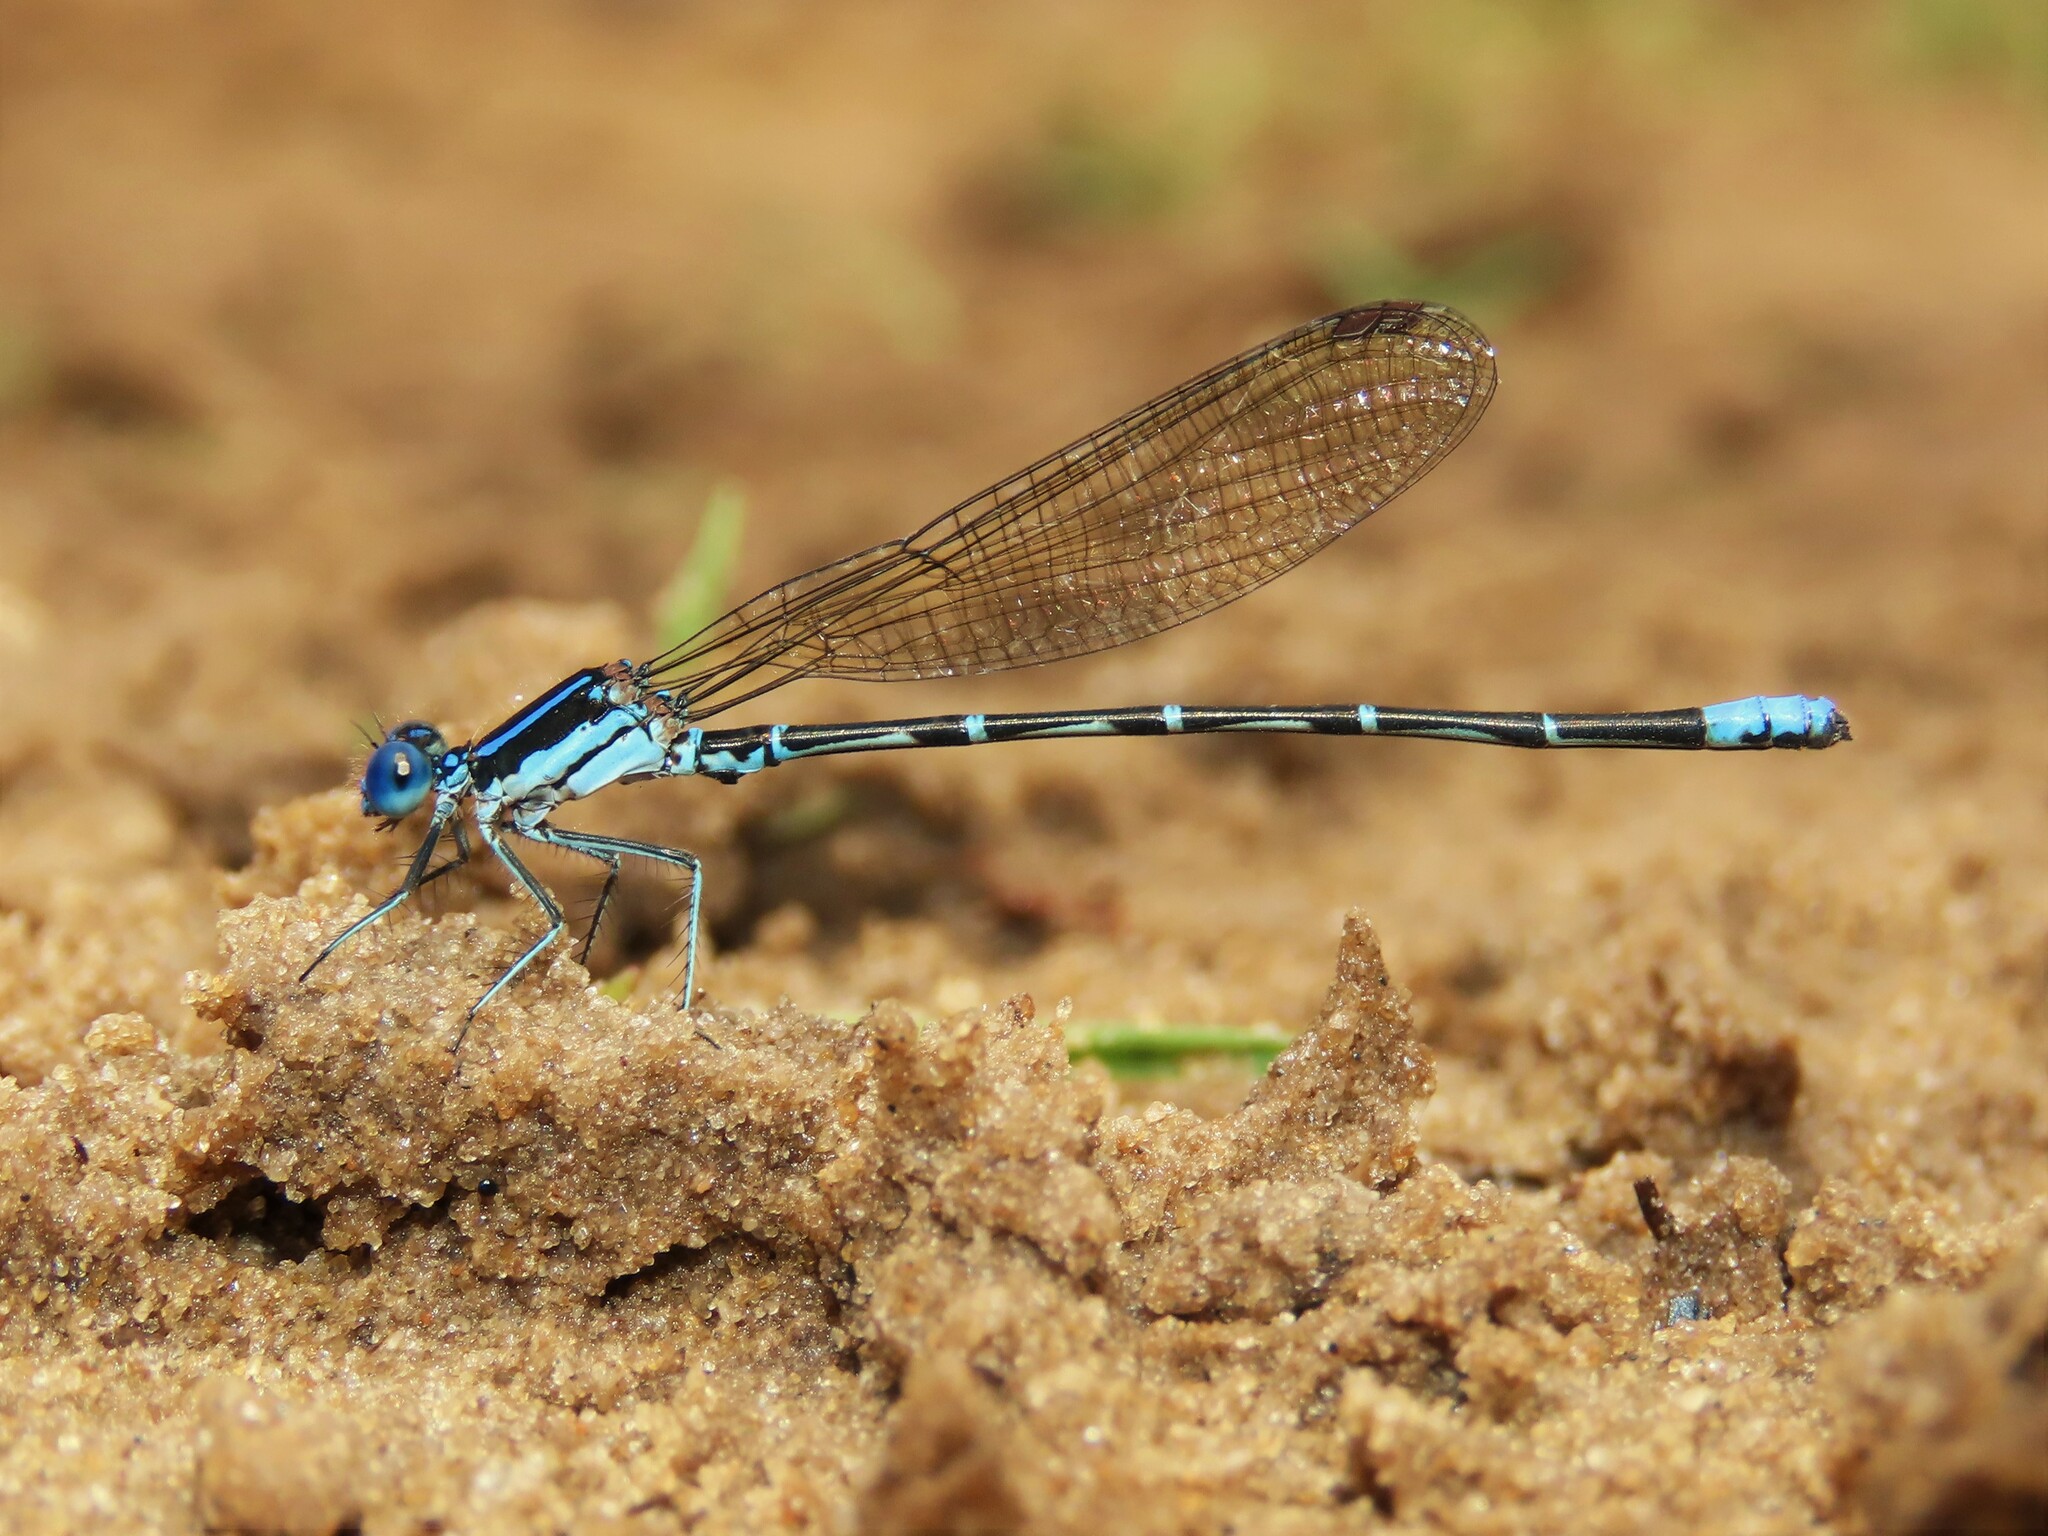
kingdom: Animalia
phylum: Arthropoda
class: Insecta
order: Odonata
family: Coenagrionidae
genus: Argia
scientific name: Argia sedula
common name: Blue-ringed dancer
